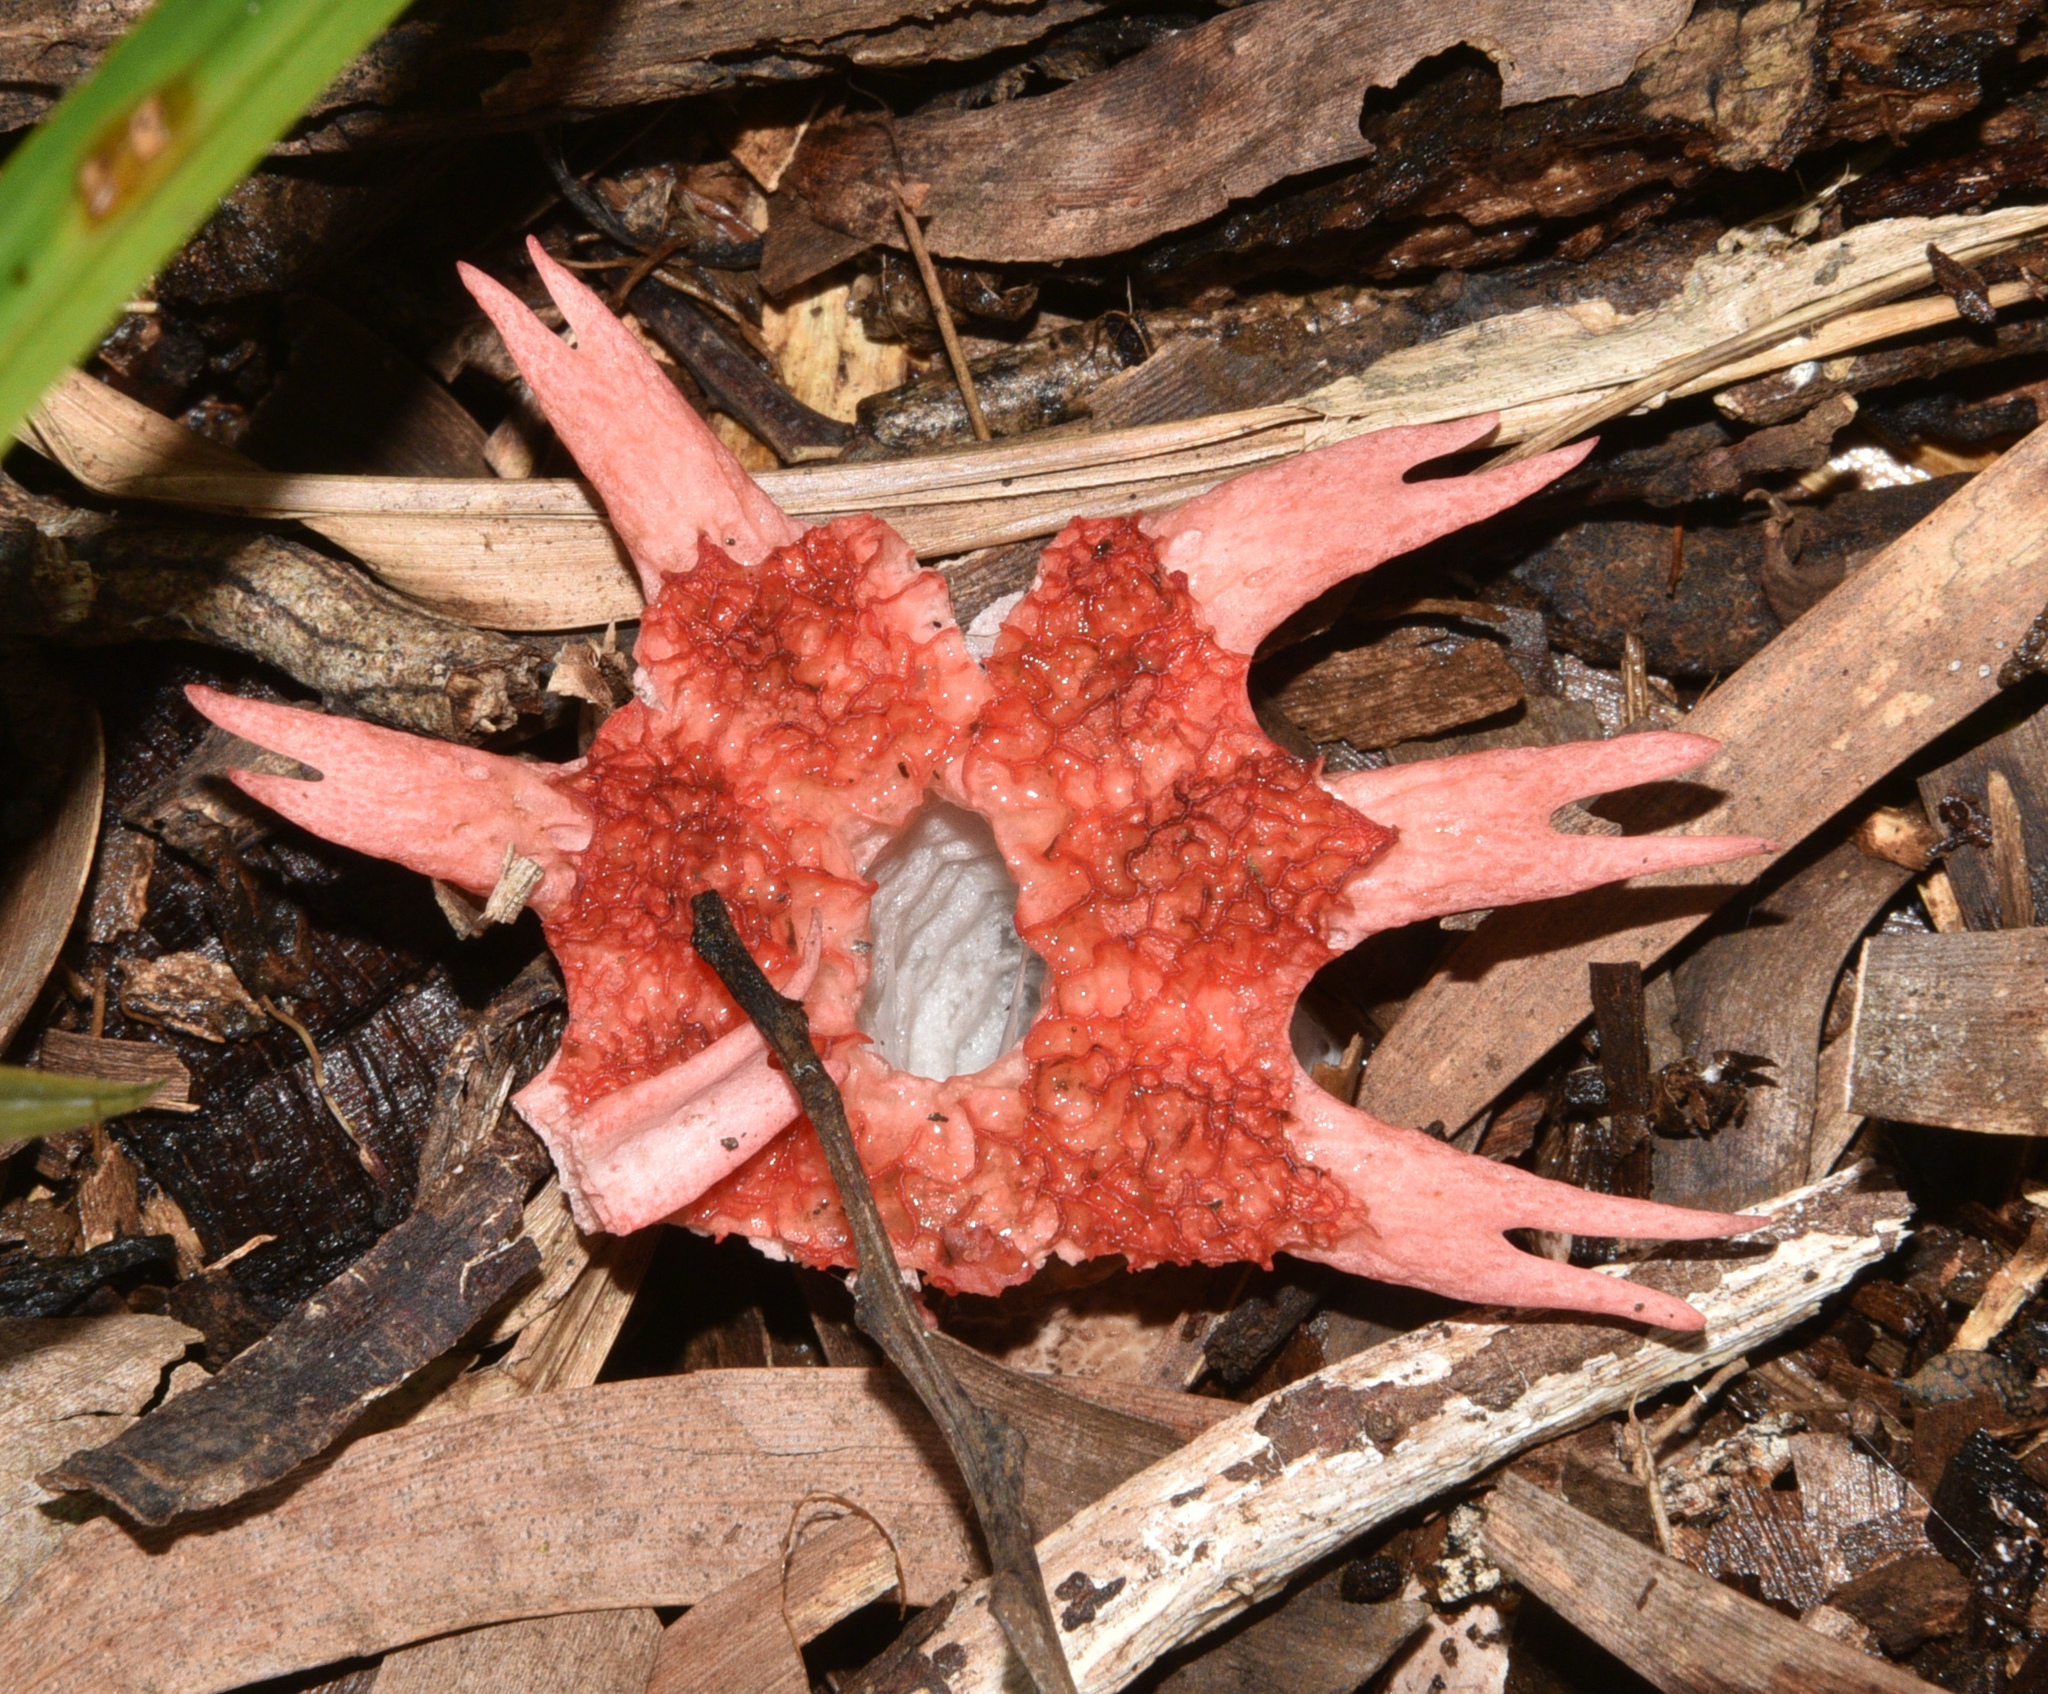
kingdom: Fungi
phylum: Basidiomycota
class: Agaricomycetes
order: Phallales
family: Phallaceae
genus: Aseroe
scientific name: Aseroe rubra
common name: Starfish fungus
